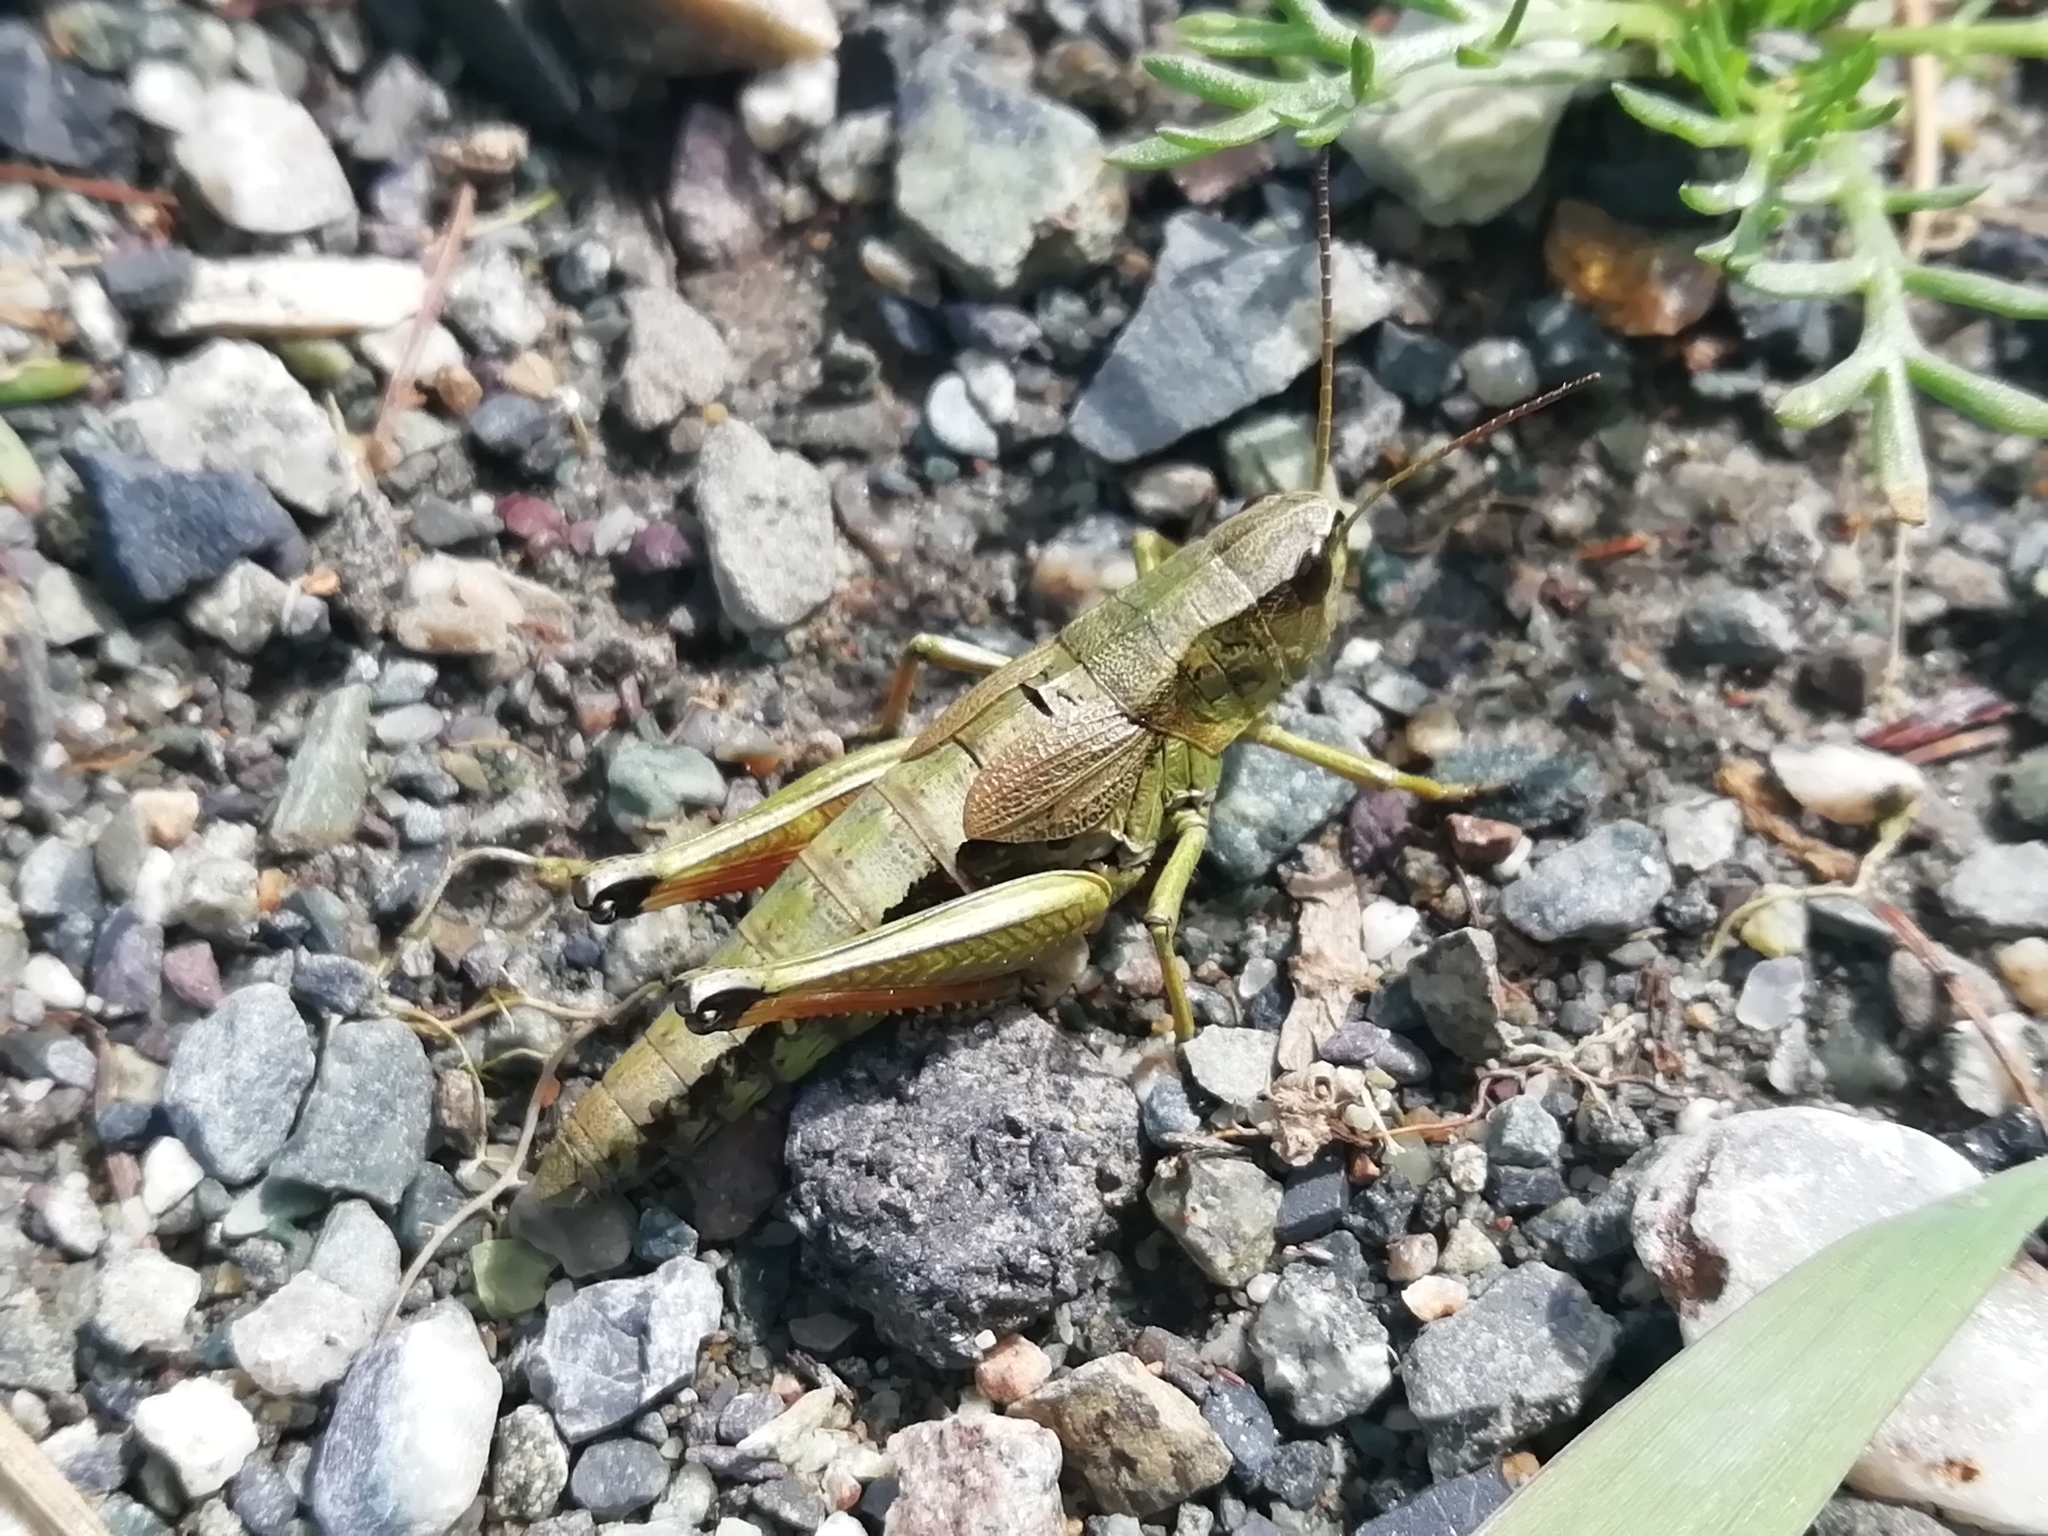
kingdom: Animalia
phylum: Arthropoda
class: Insecta
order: Orthoptera
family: Acrididae
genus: Podismopsis
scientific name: Podismopsis poppiusi
